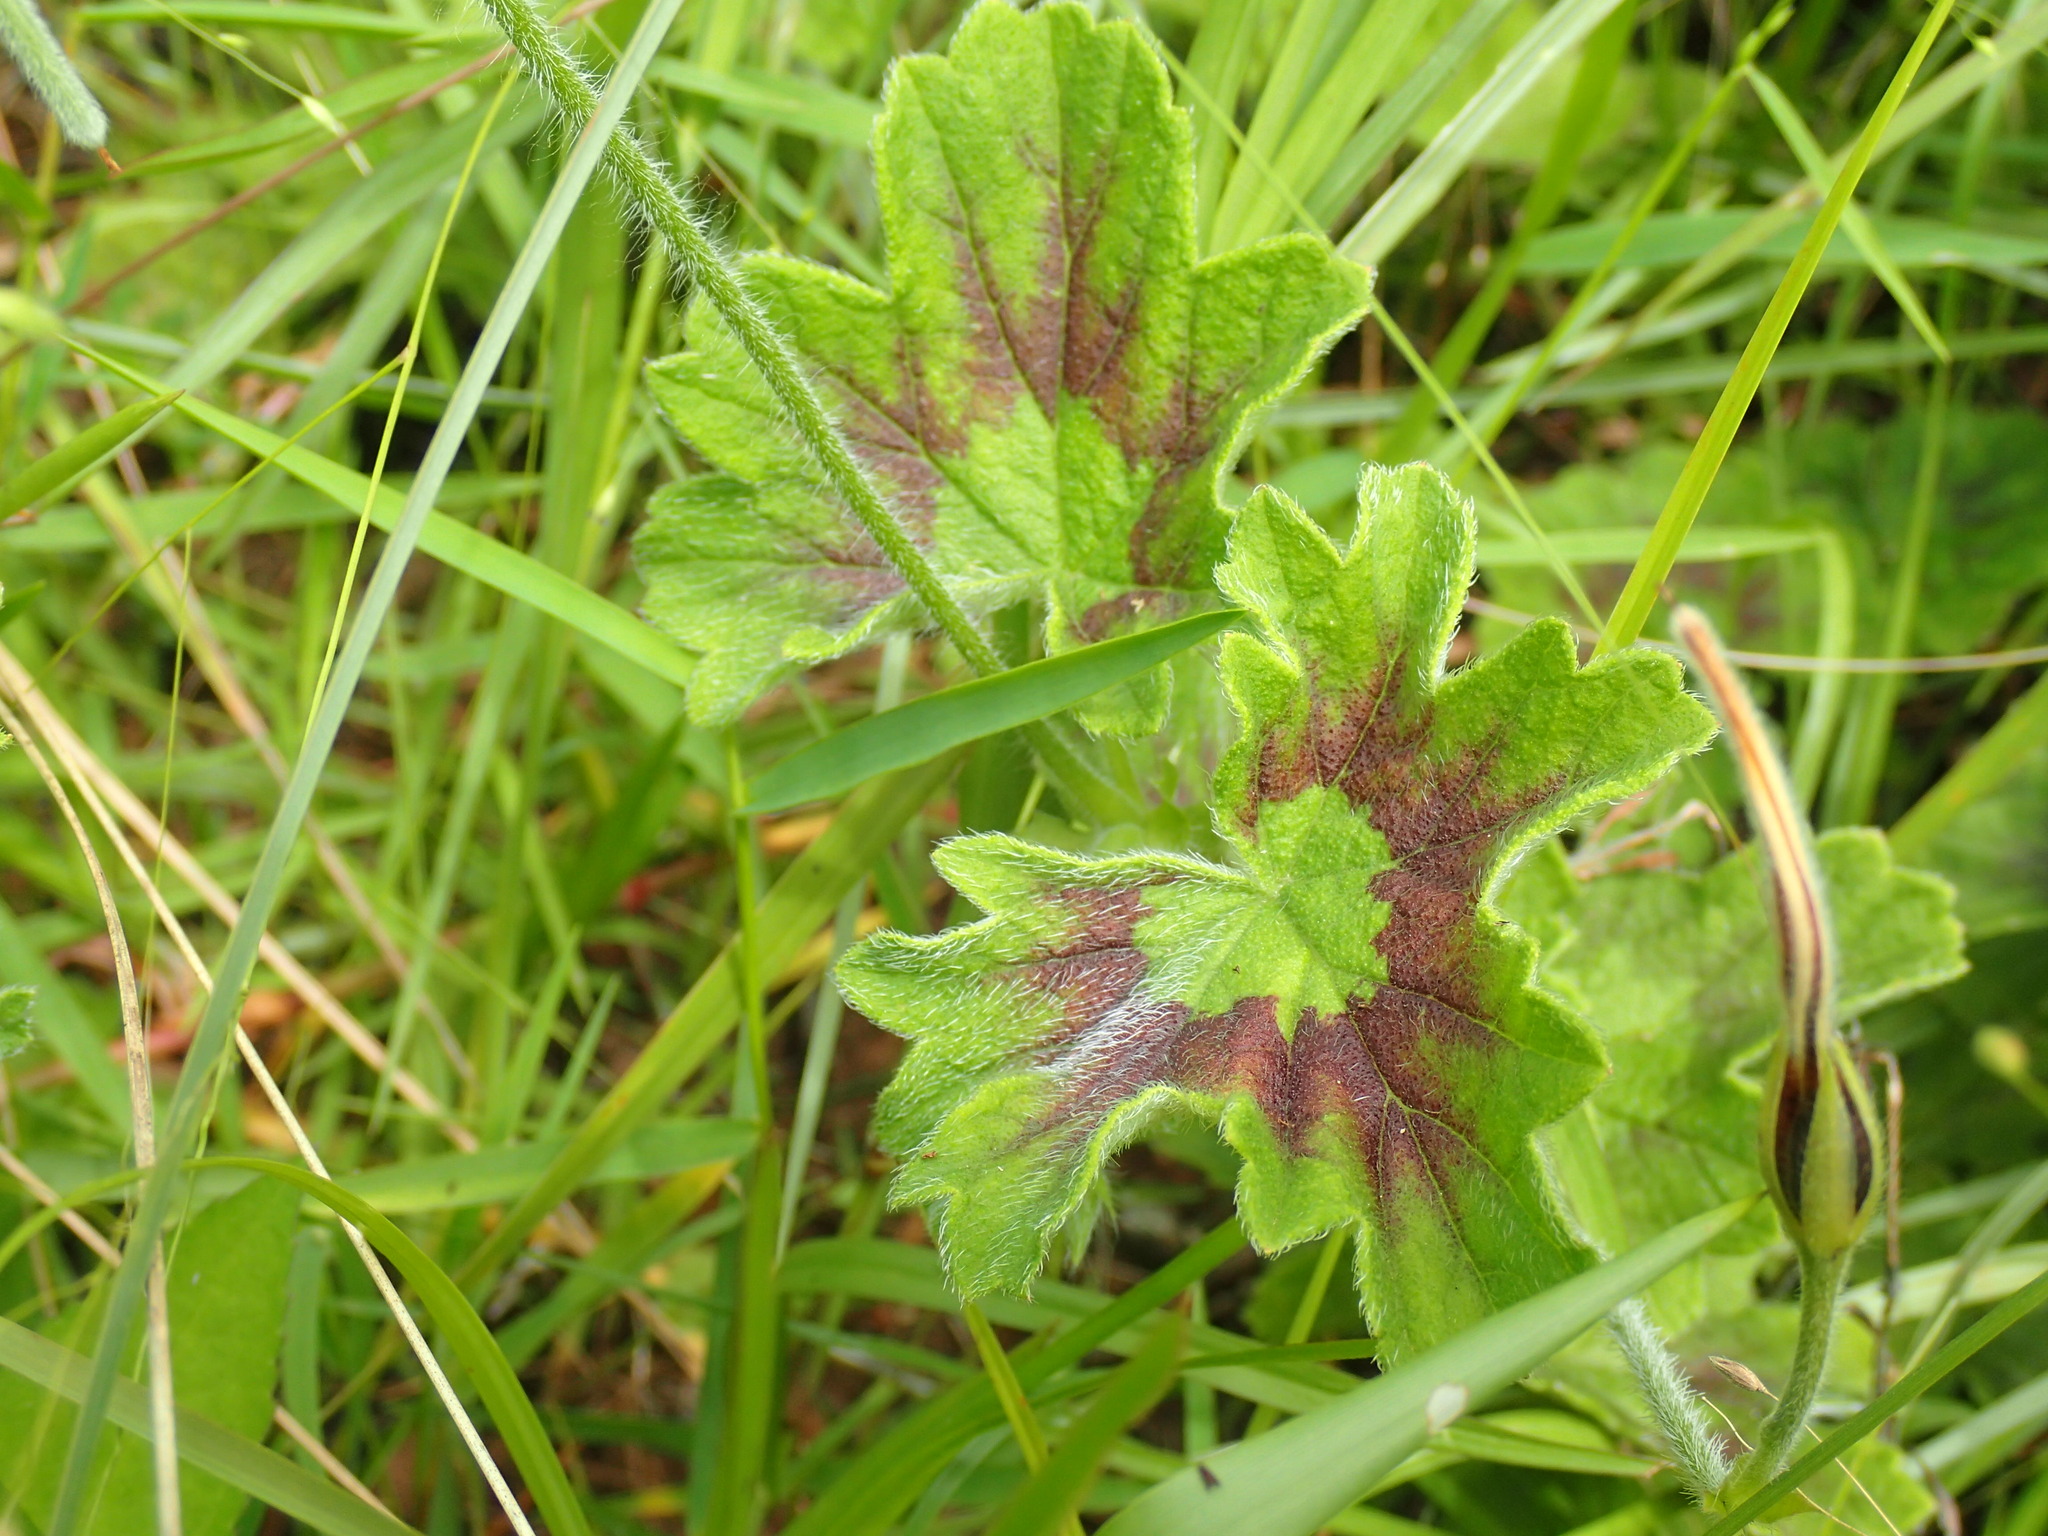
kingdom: Plantae
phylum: Tracheophyta
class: Magnoliopsida
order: Geraniales
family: Geraniaceae
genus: Pelargonium
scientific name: Pelargonium alchemilloides
